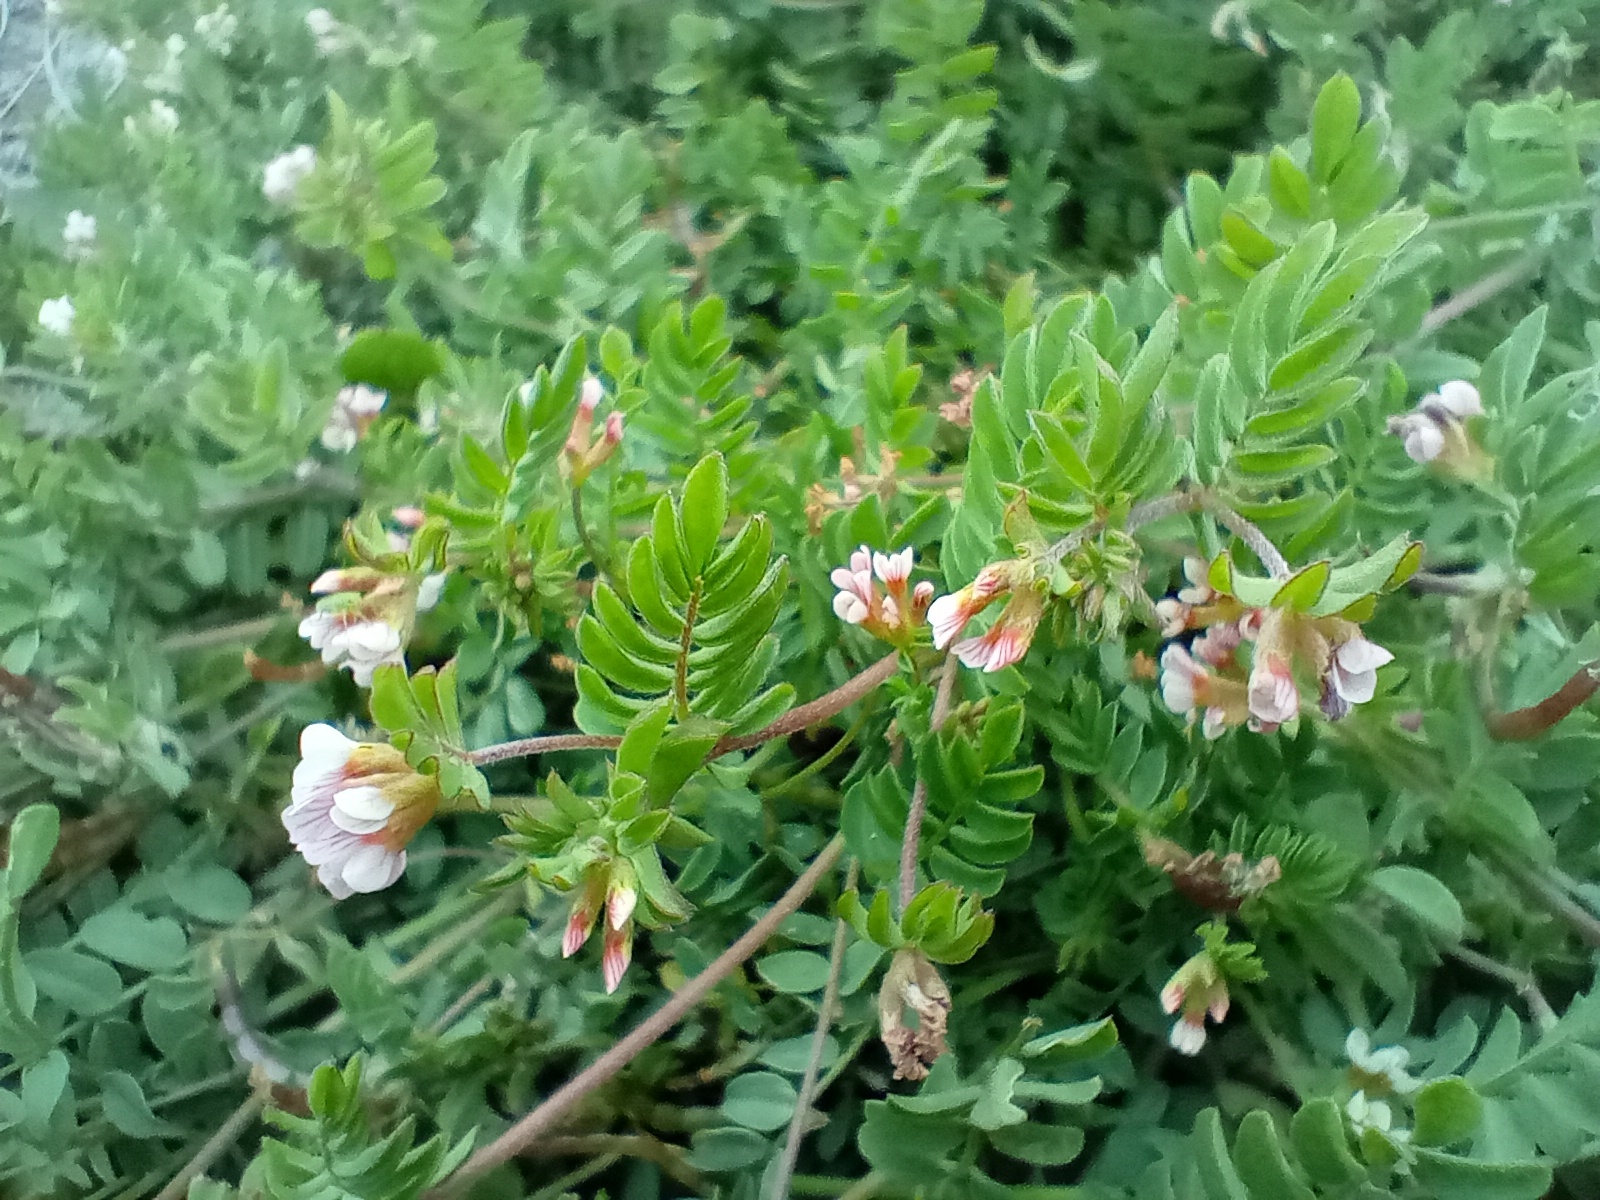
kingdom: Plantae
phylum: Tracheophyta
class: Magnoliopsida
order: Fabales
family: Fabaceae
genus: Ornithopus
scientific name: Ornithopus perpusillus
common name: Bird's-foot
